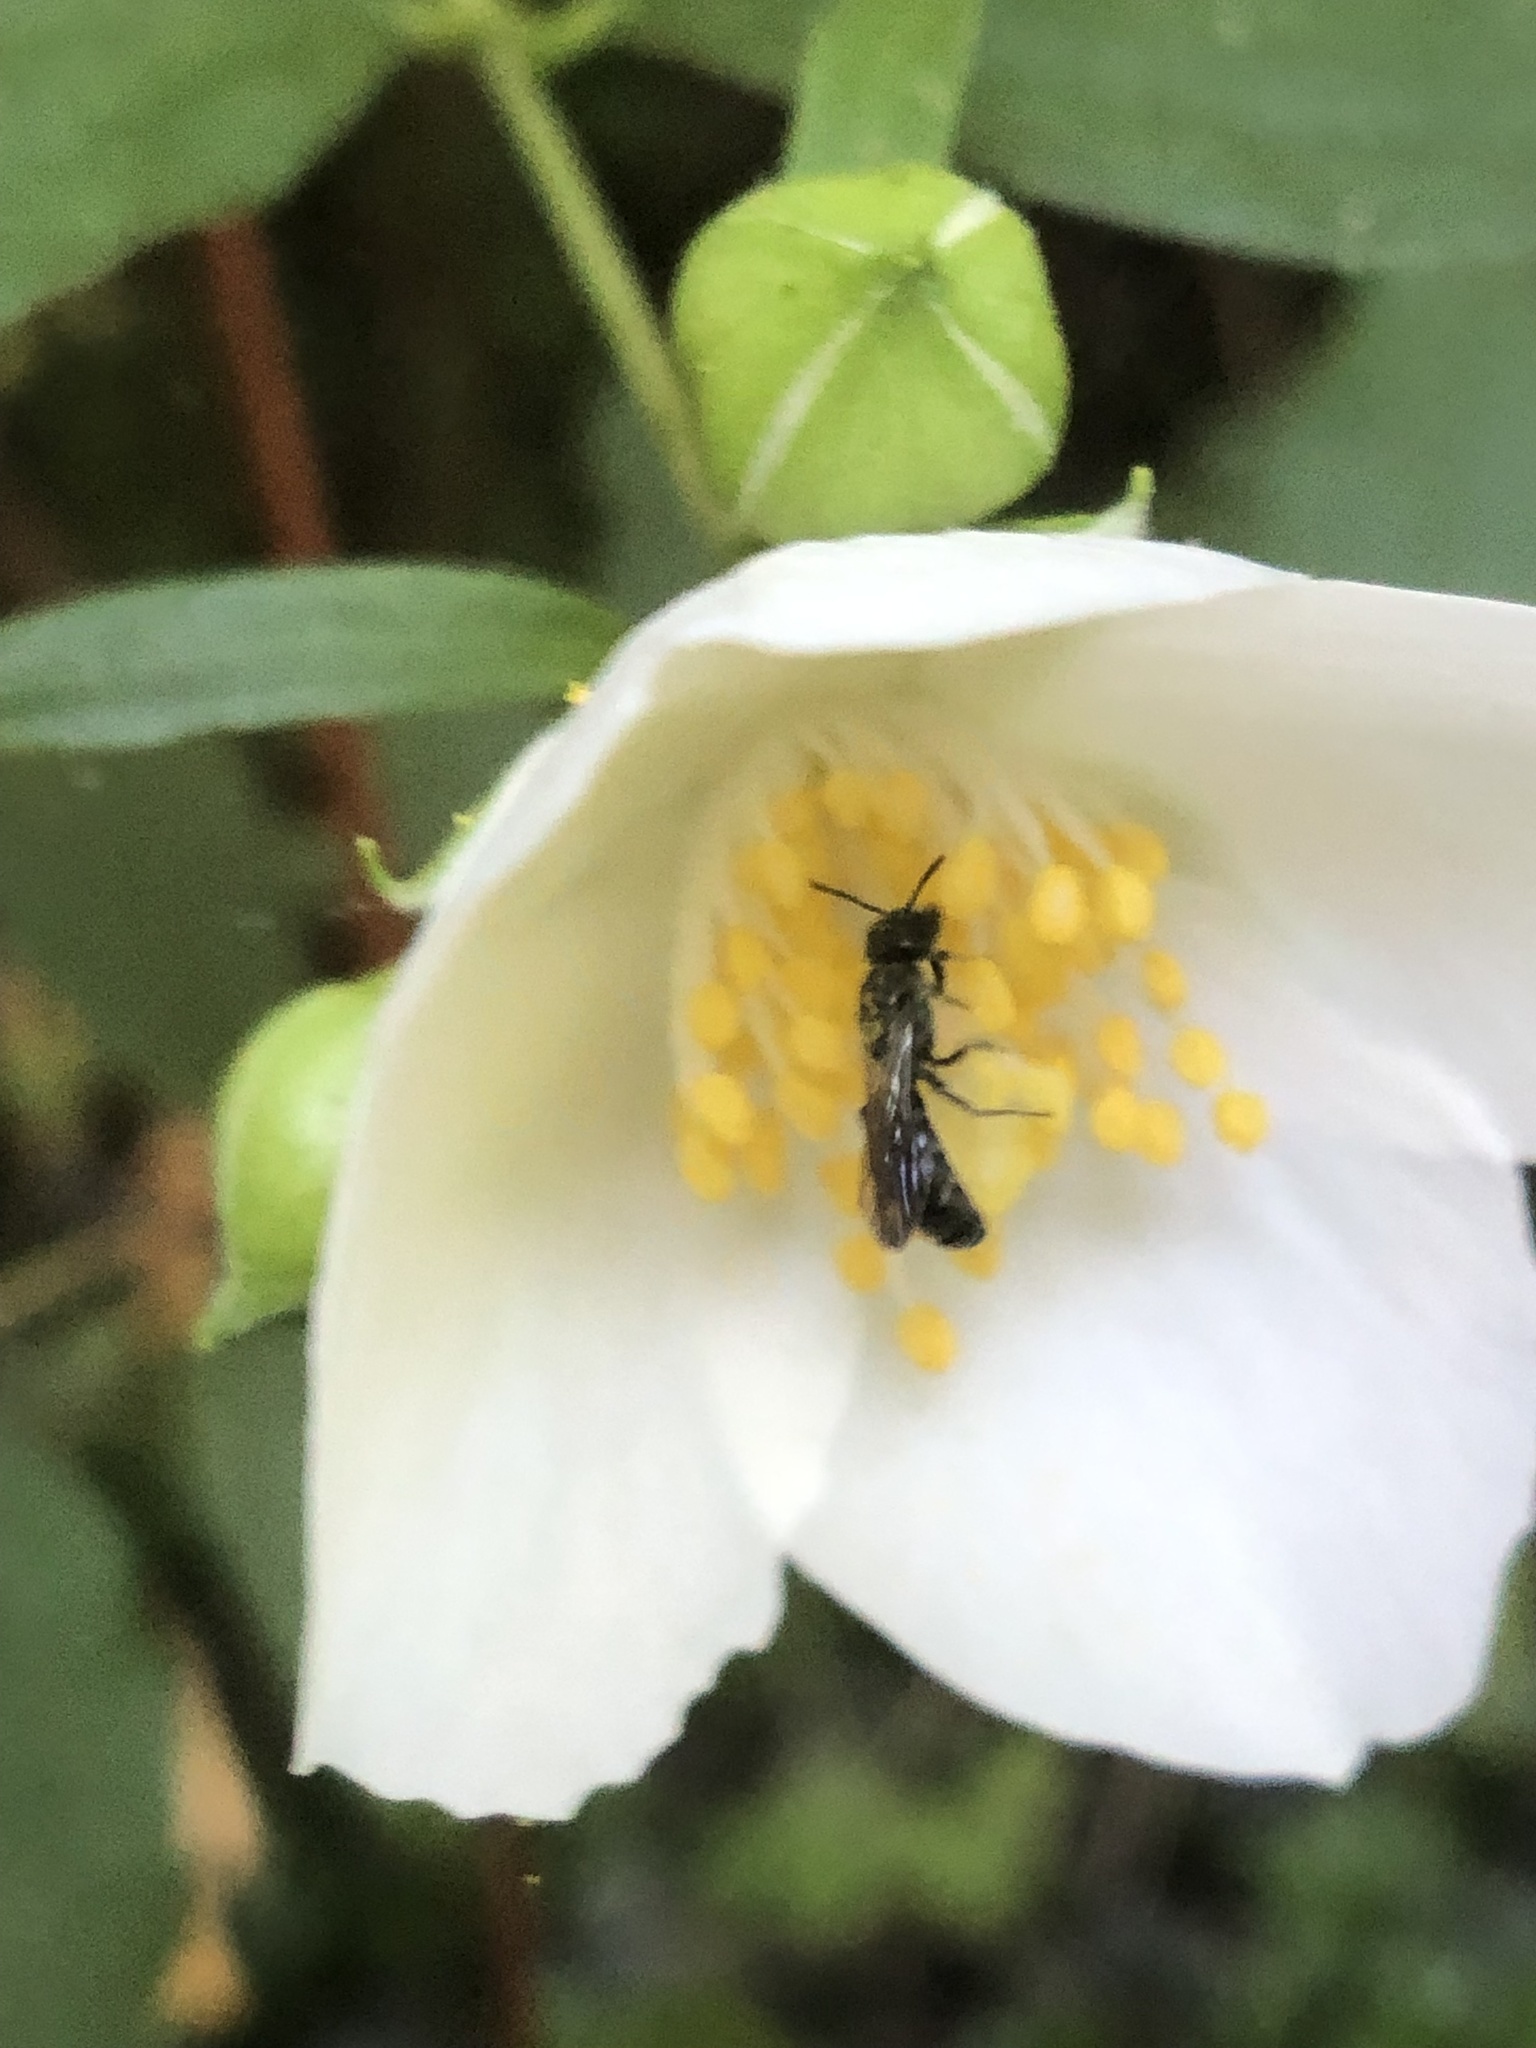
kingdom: Animalia
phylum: Arthropoda
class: Insecta
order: Hymenoptera
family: Megachilidae
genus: Chelostoma
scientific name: Chelostoma philadelphi
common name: Mock-orange scissor bee
